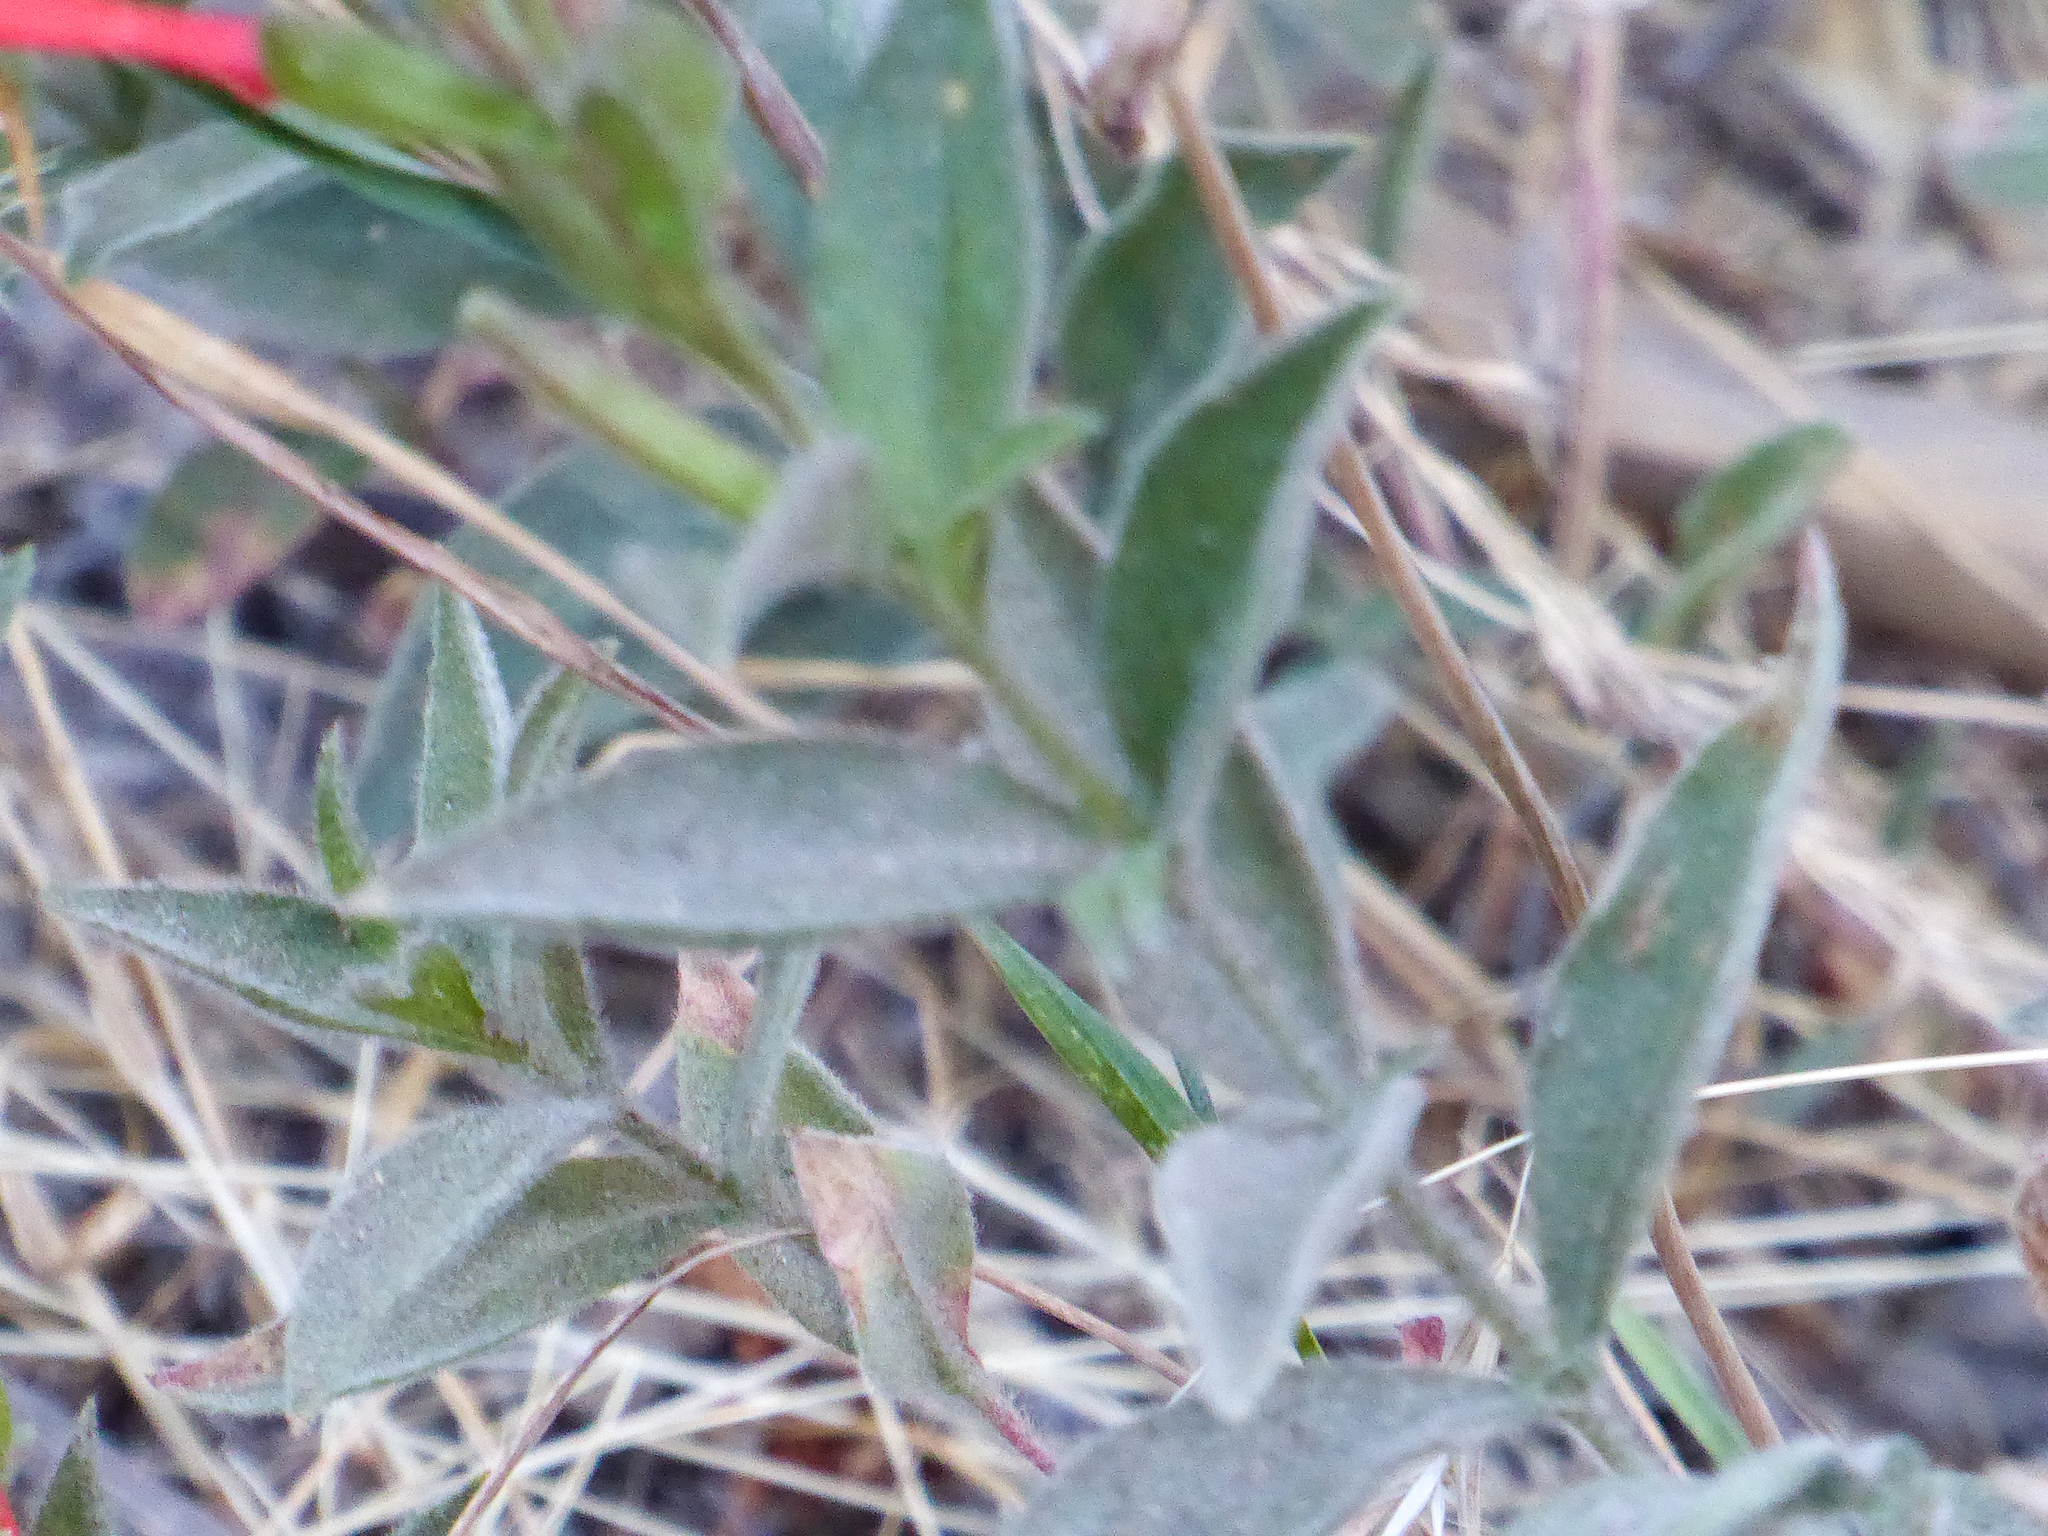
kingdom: Plantae
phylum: Tracheophyta
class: Magnoliopsida
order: Myrtales
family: Onagraceae
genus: Epilobium
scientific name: Epilobium canum
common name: California-fuchsia
